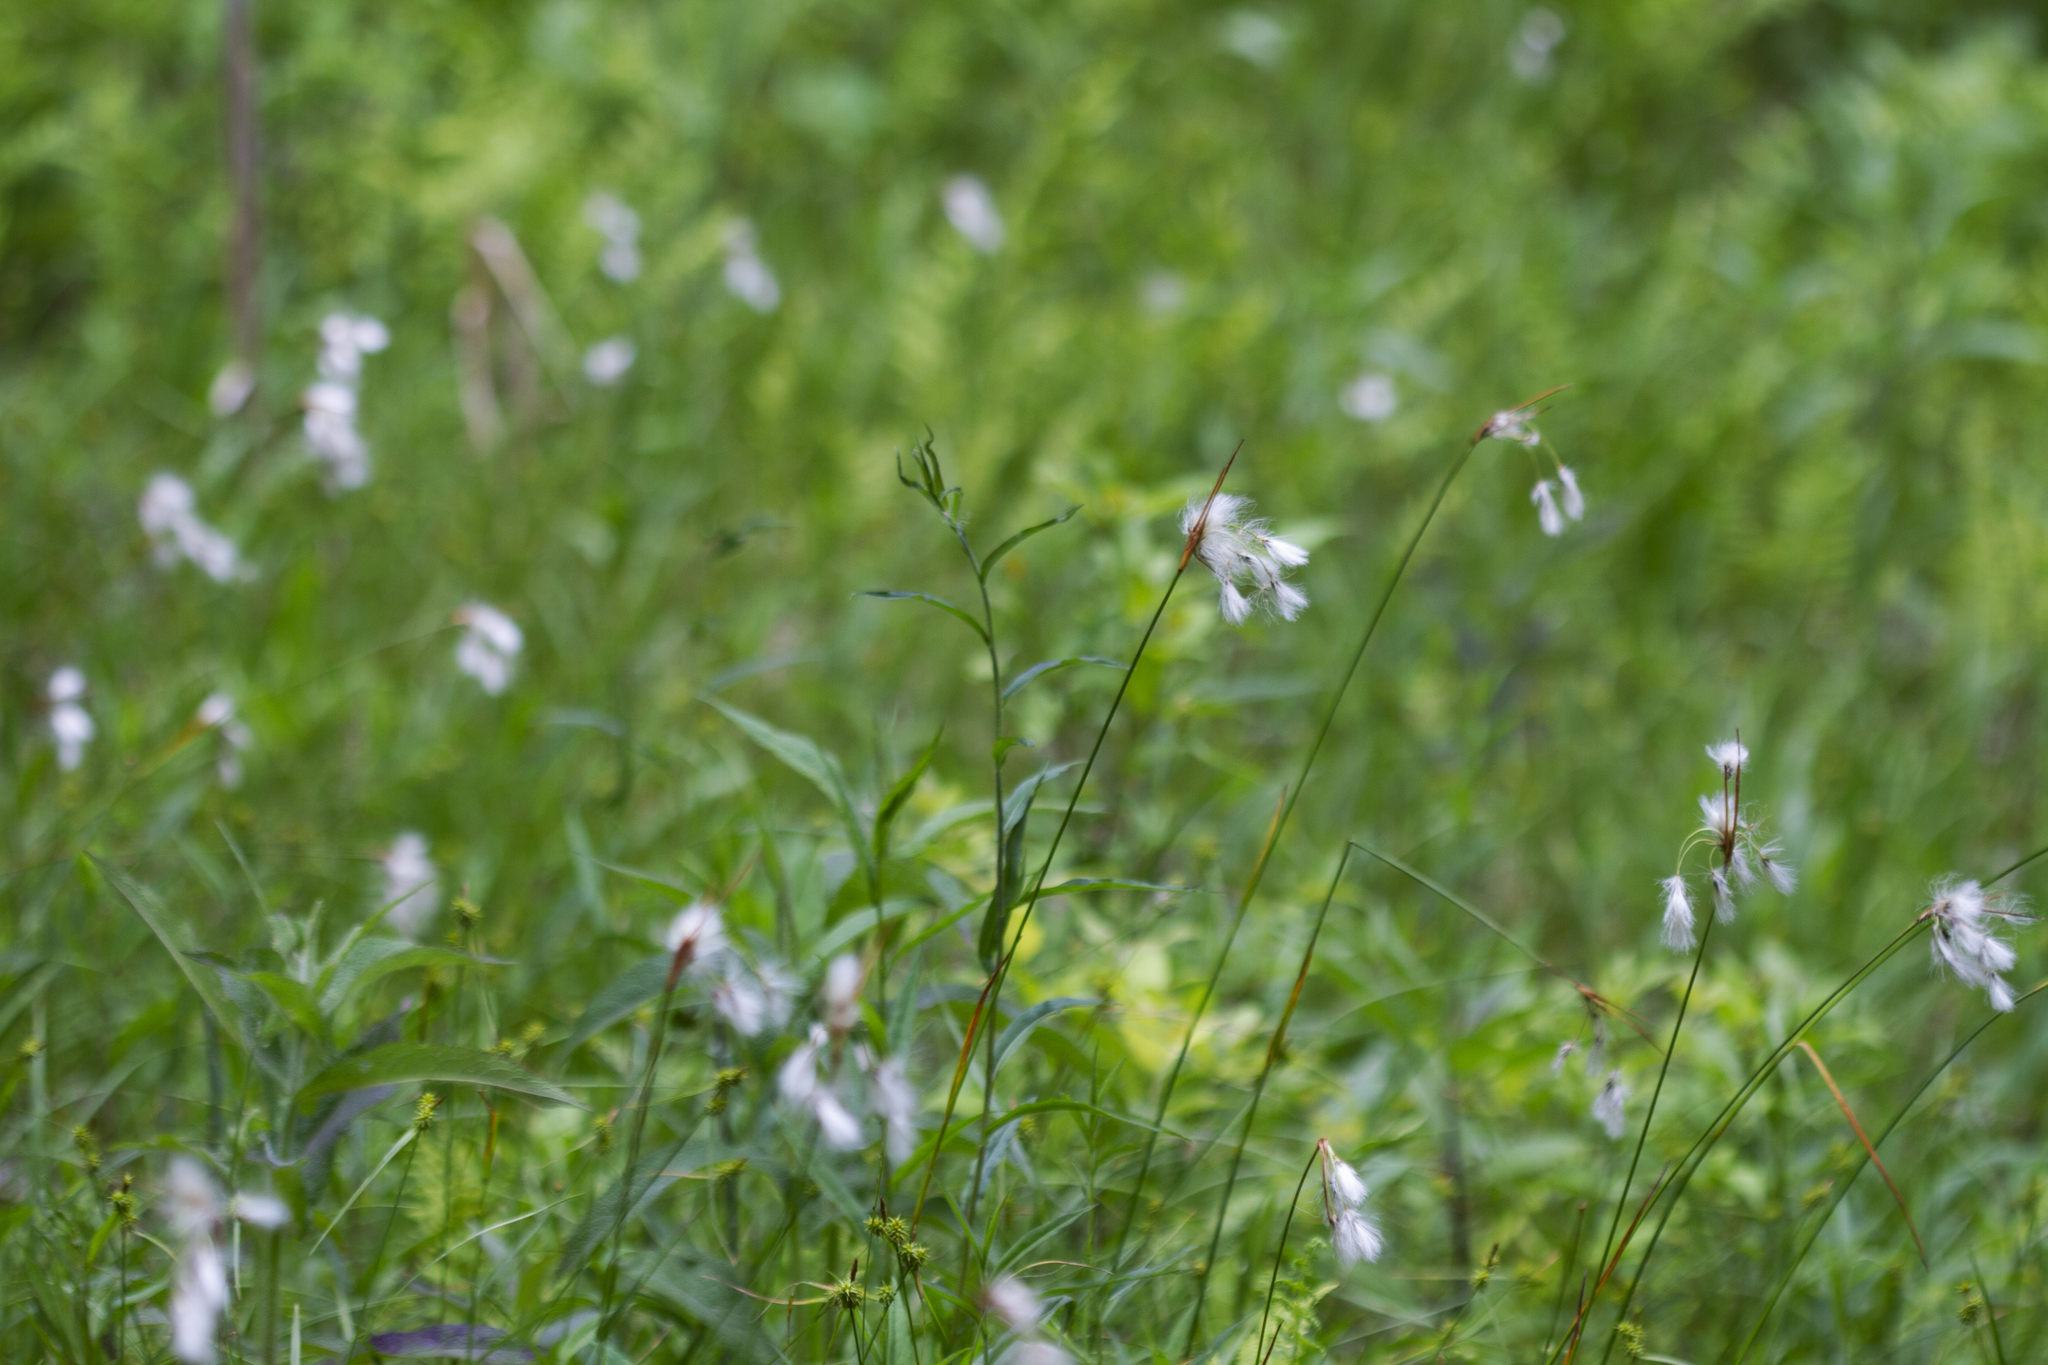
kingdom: Plantae
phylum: Tracheophyta
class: Liliopsida
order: Poales
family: Cyperaceae
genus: Eriophorum
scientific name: Eriophorum viridicarinatum
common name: Green-keeled cottongrass
